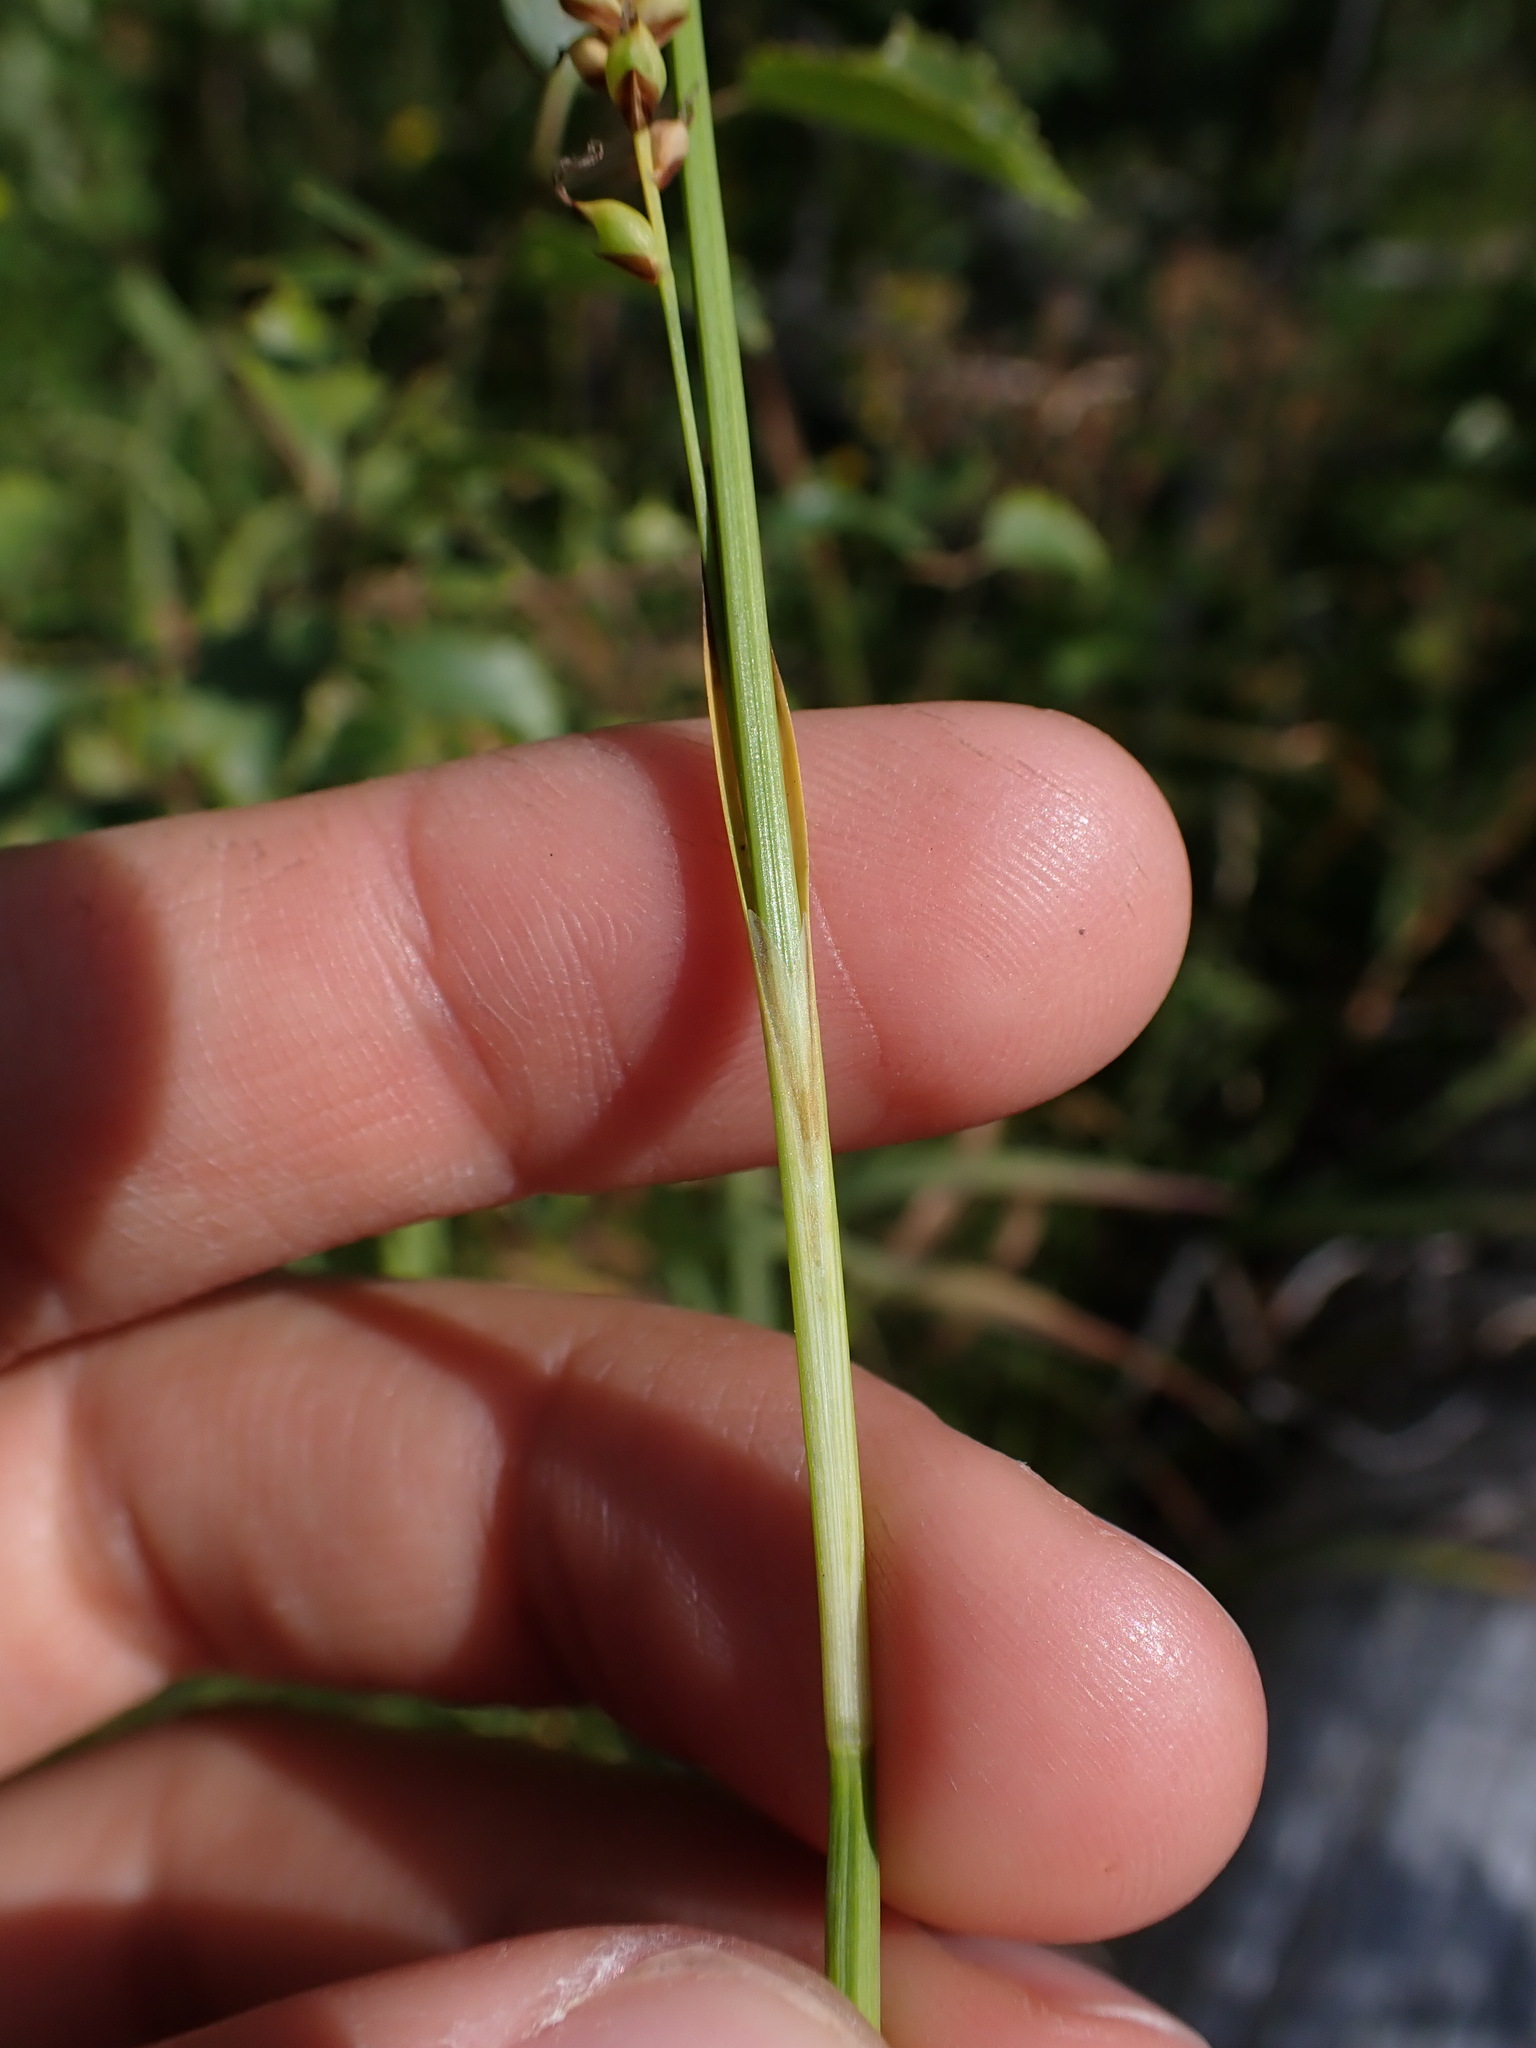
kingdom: Plantae
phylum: Tracheophyta
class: Liliopsida
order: Poales
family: Cyperaceae
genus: Carex
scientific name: Carex panicea
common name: Carnation sedge
